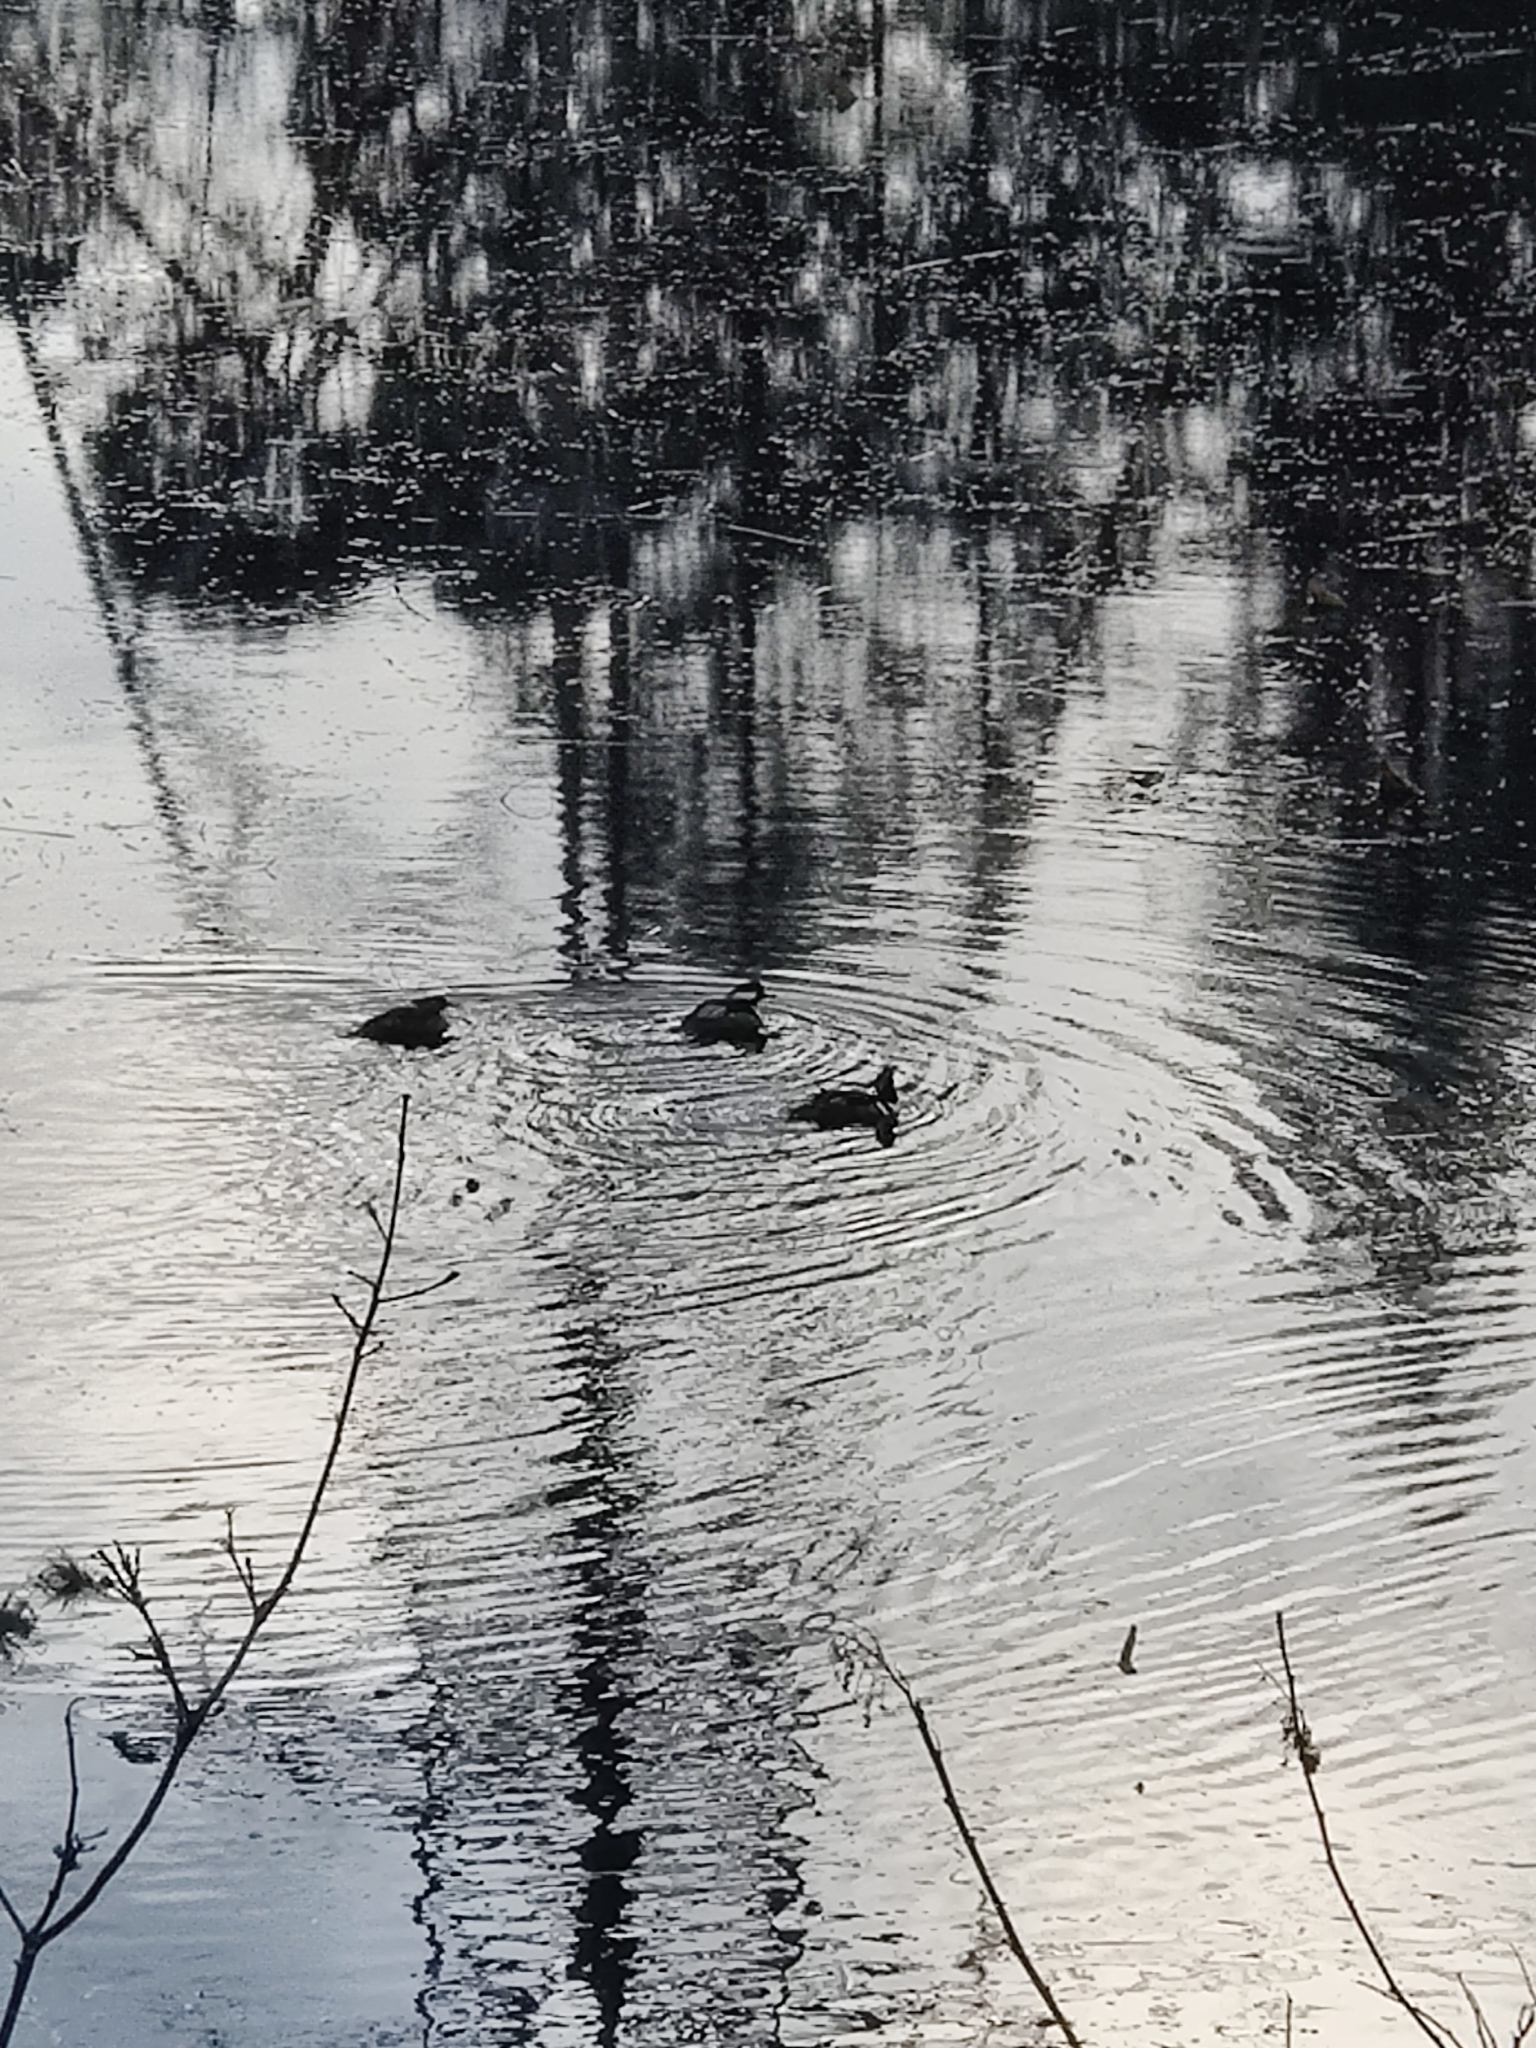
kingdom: Animalia
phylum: Chordata
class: Aves
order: Anseriformes
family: Anatidae
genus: Lophodytes
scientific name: Lophodytes cucullatus
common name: Hooded merganser
